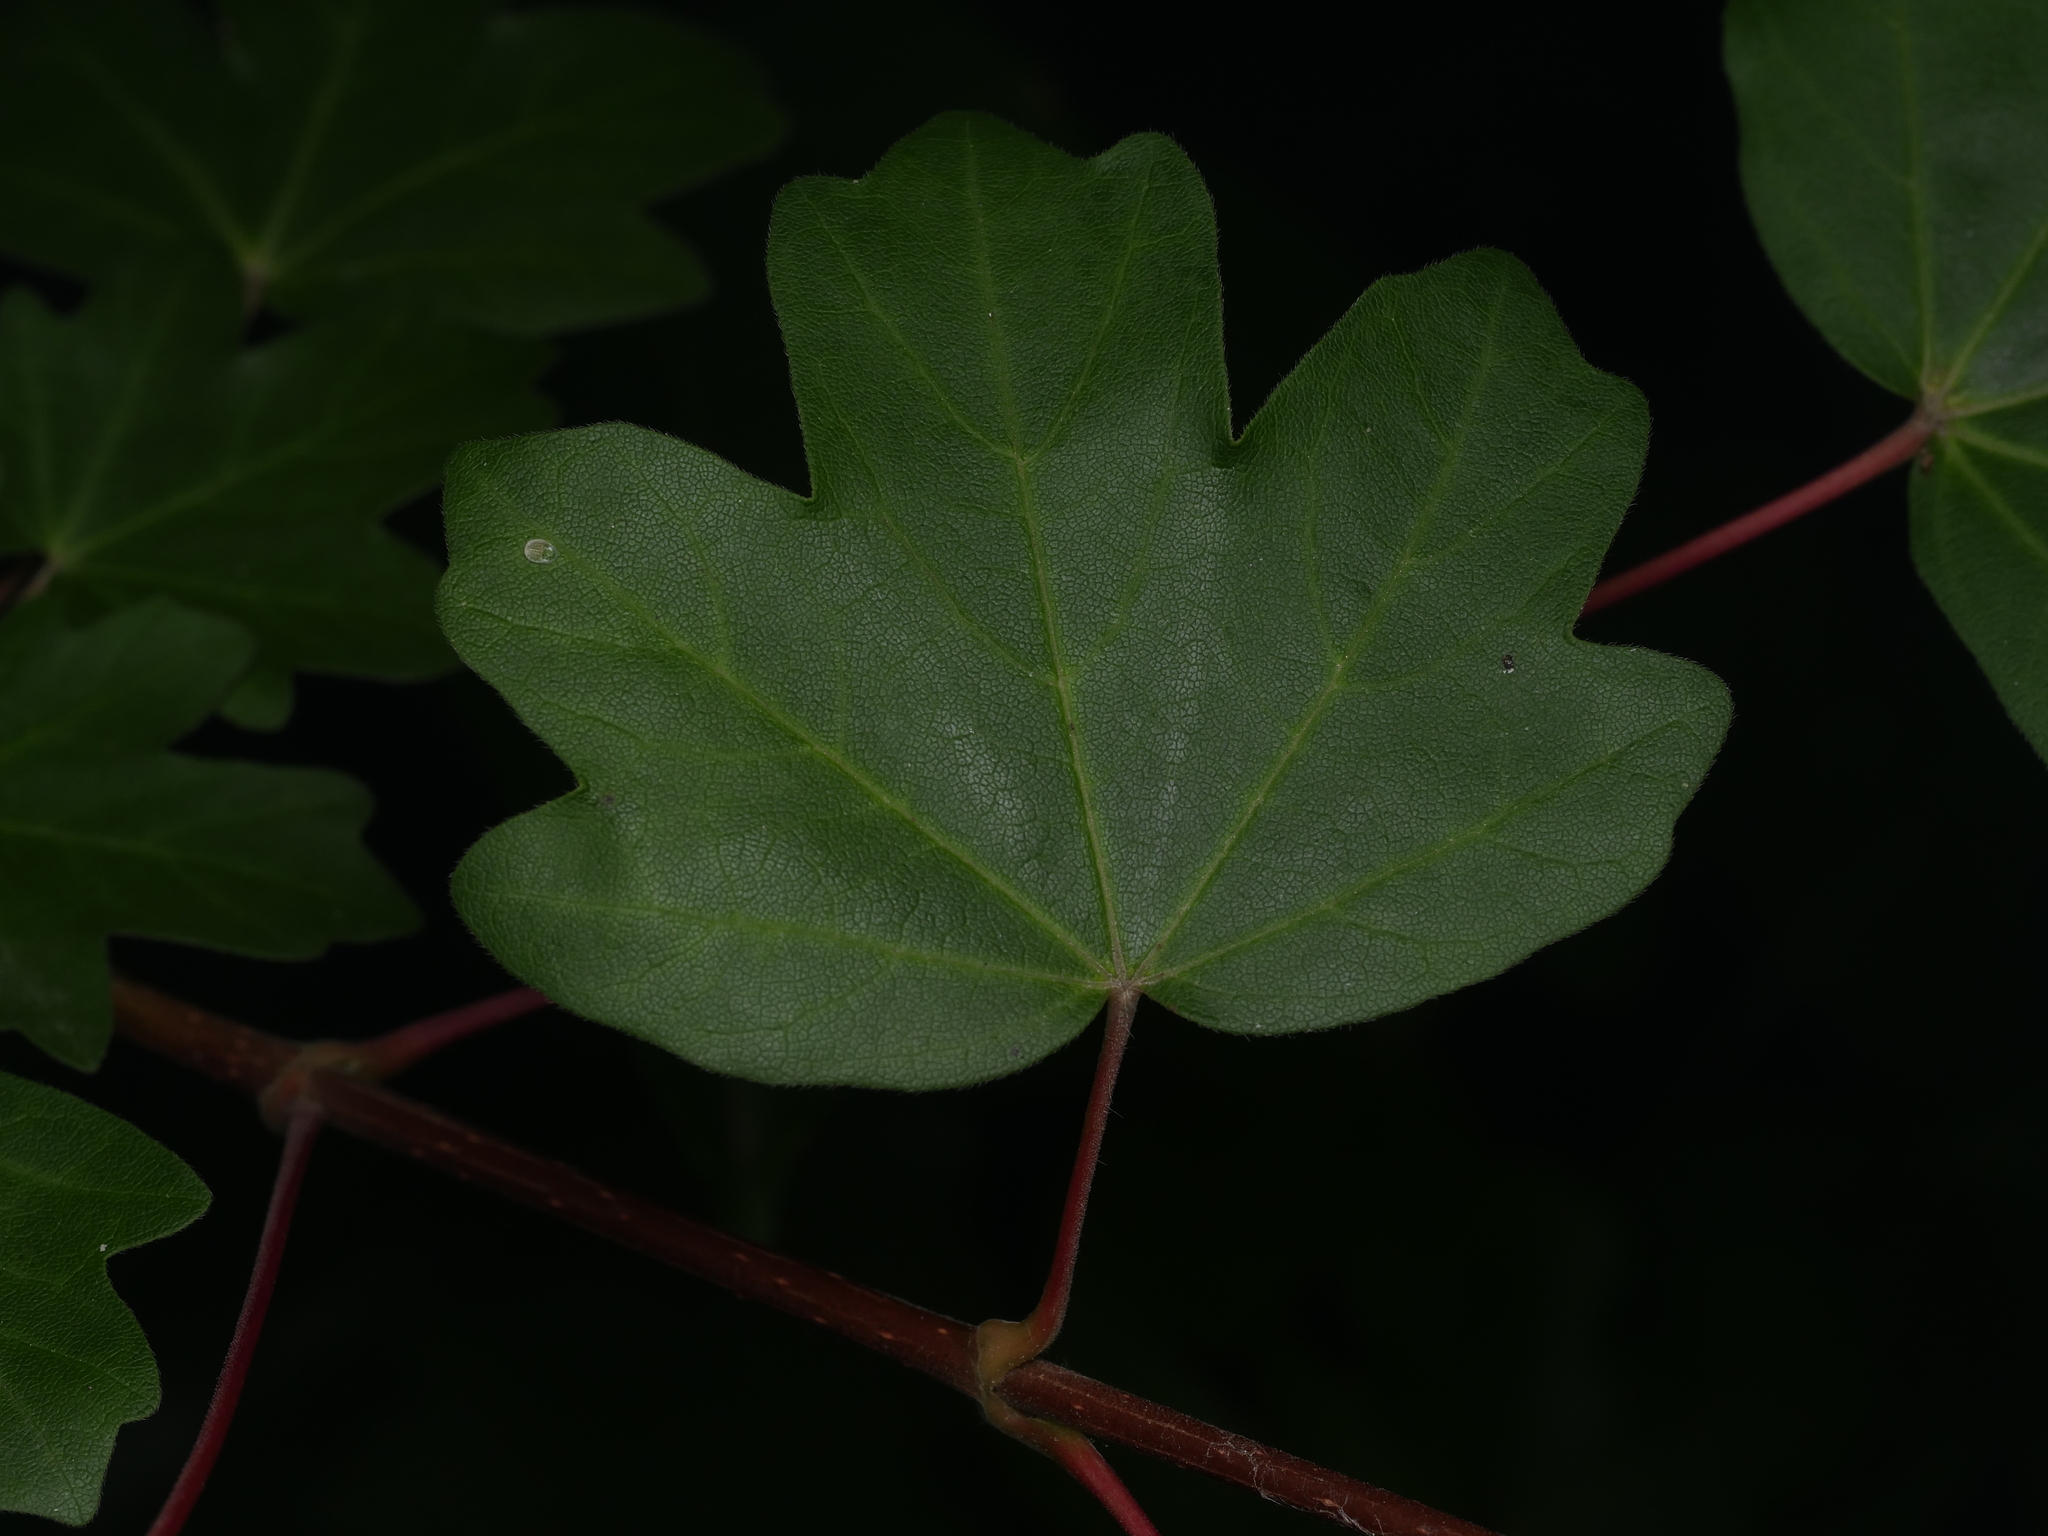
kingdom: Plantae
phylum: Tracheophyta
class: Magnoliopsida
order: Sapindales
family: Sapindaceae
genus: Acer
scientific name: Acer campestre
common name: Field maple
